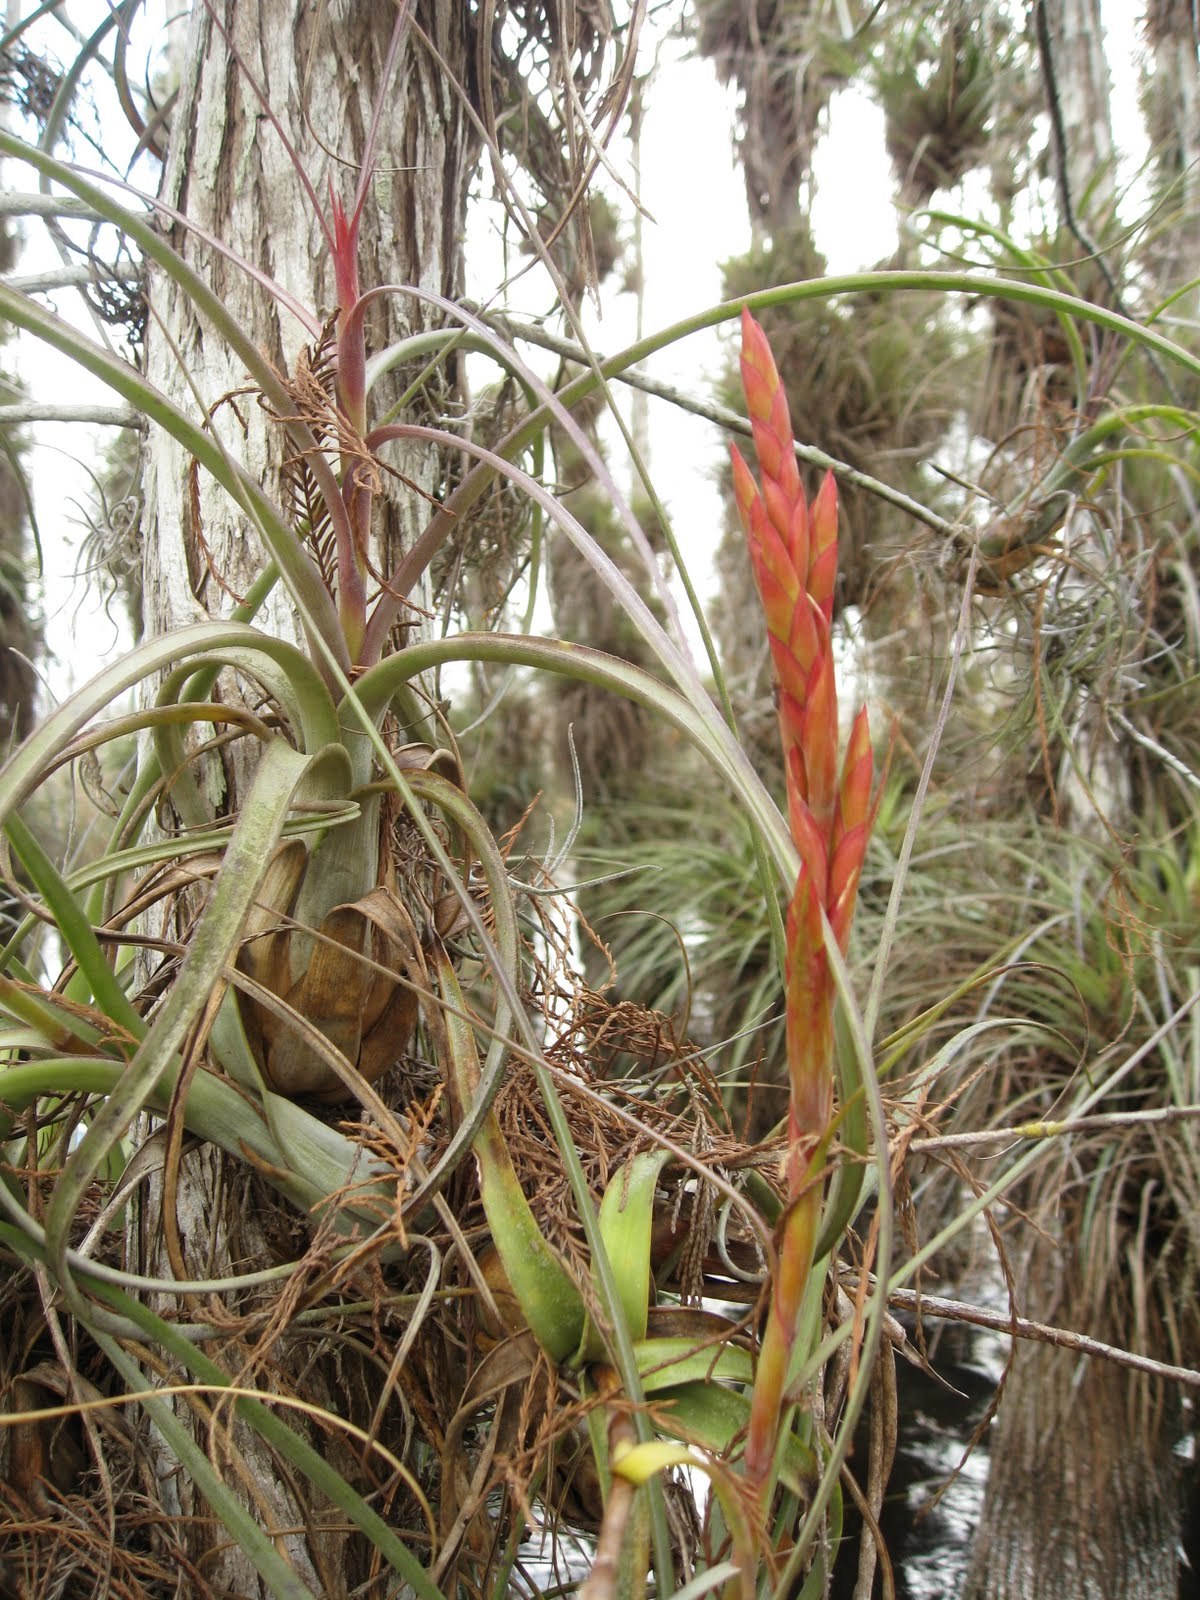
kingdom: Plantae
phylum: Tracheophyta
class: Liliopsida
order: Poales
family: Bromeliaceae
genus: Tillandsia
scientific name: Tillandsia balbisiana
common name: Northern needleleaf
